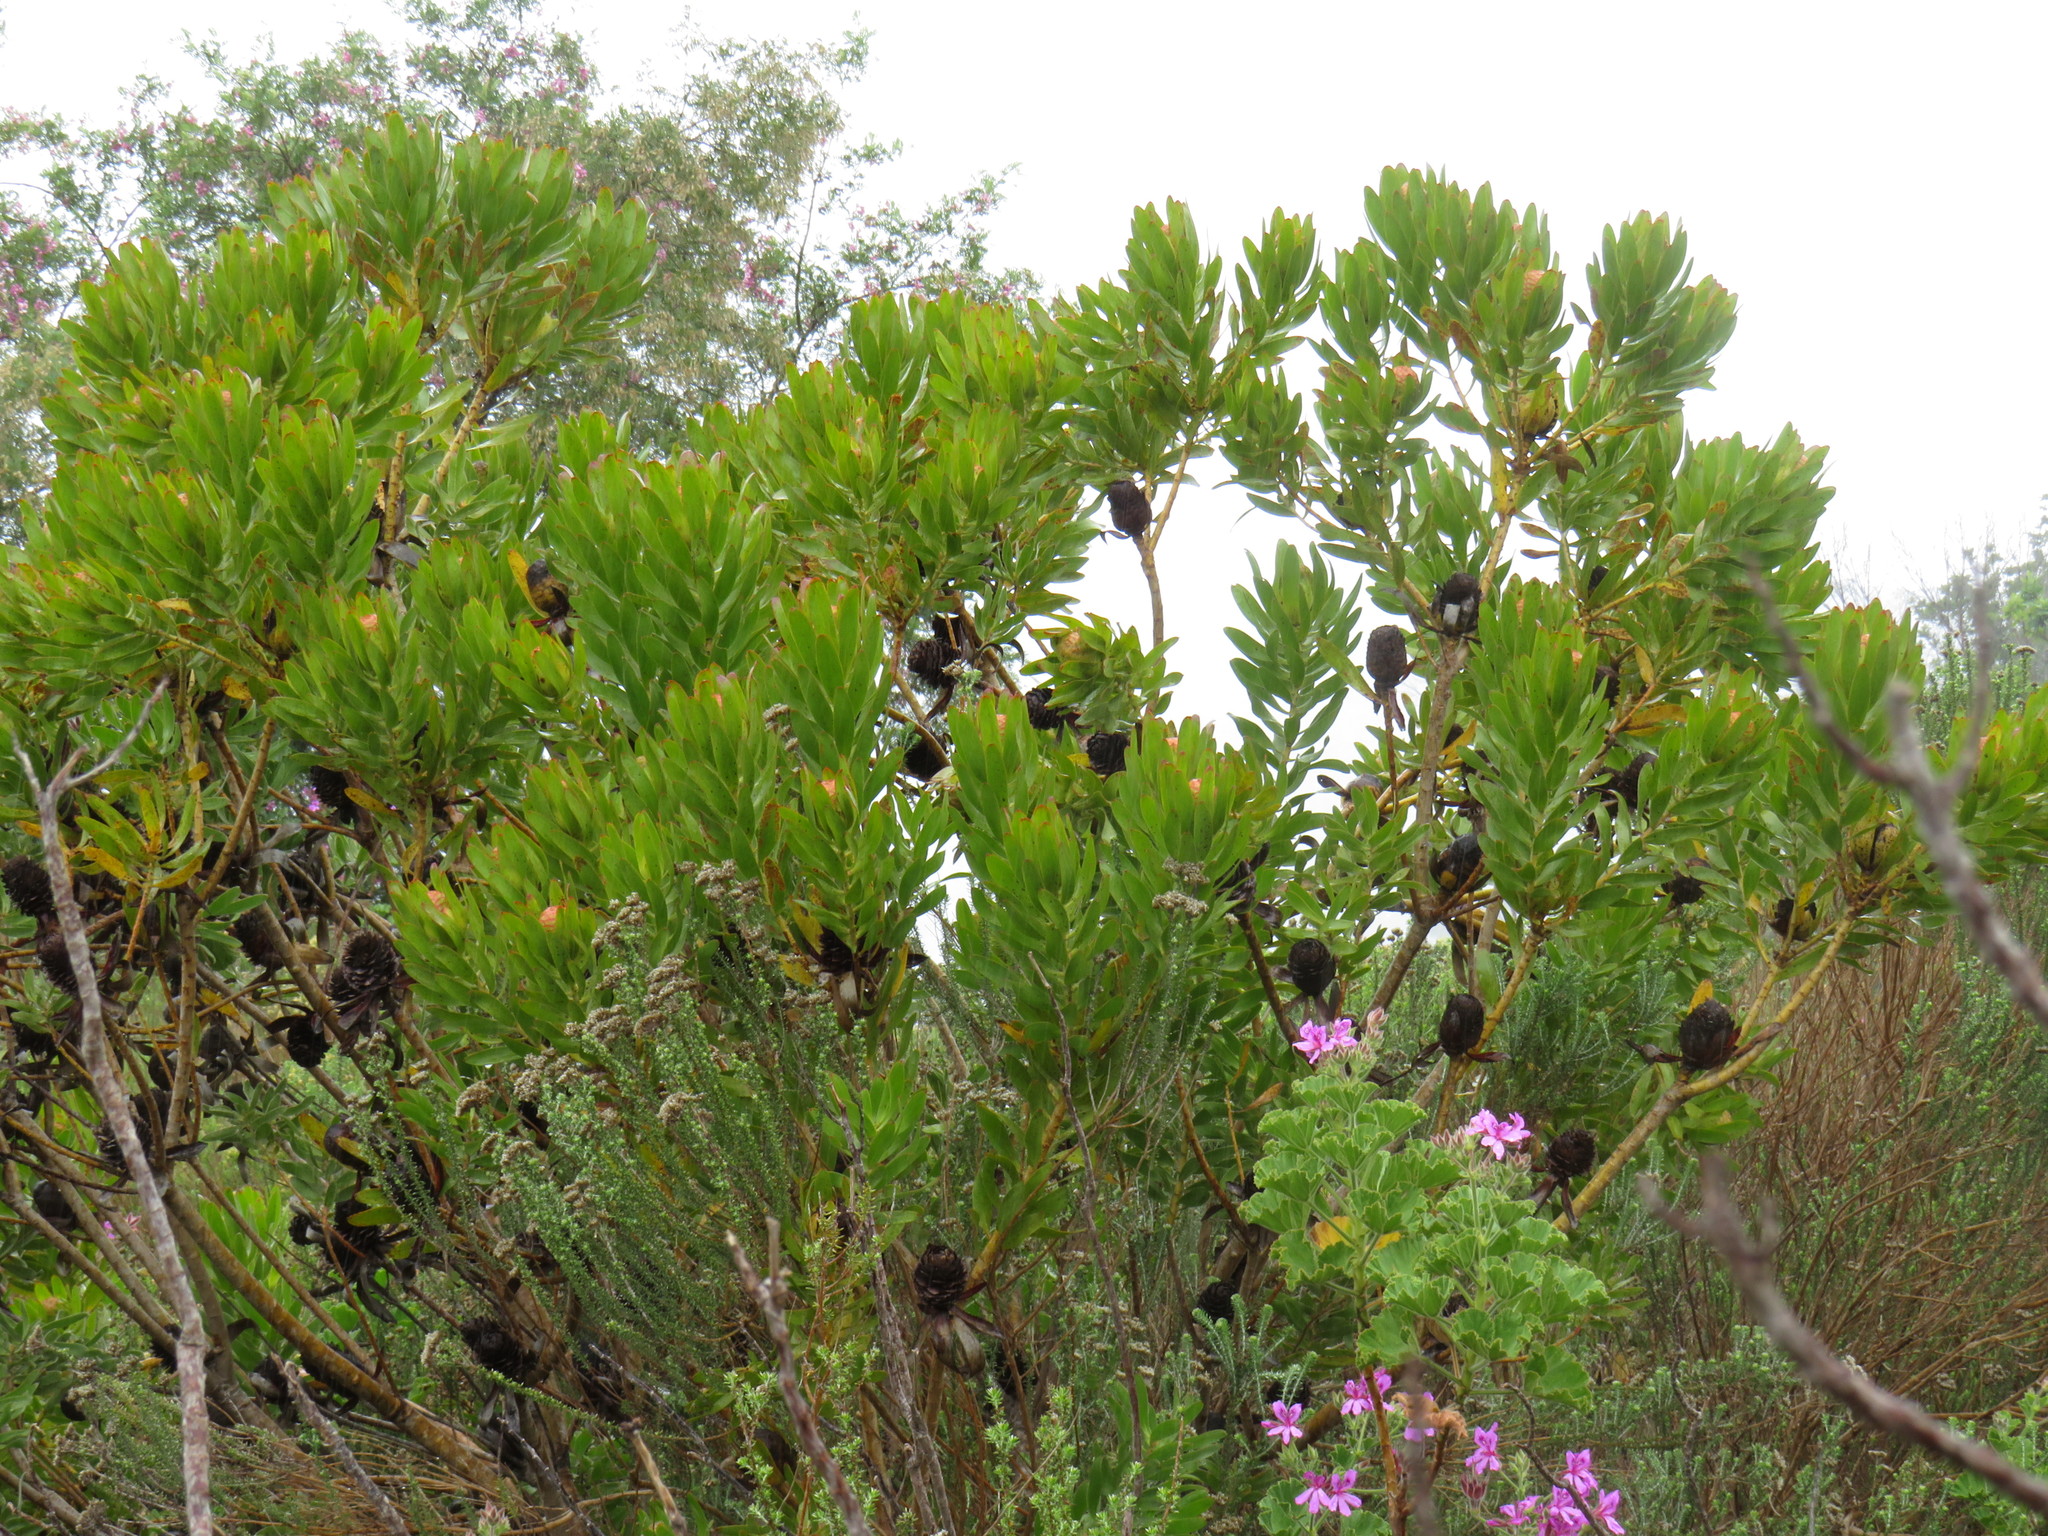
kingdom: Plantae
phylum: Tracheophyta
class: Magnoliopsida
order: Proteales
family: Proteaceae
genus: Leucadendron
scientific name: Leucadendron laureolum
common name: Golden sunshinebush
